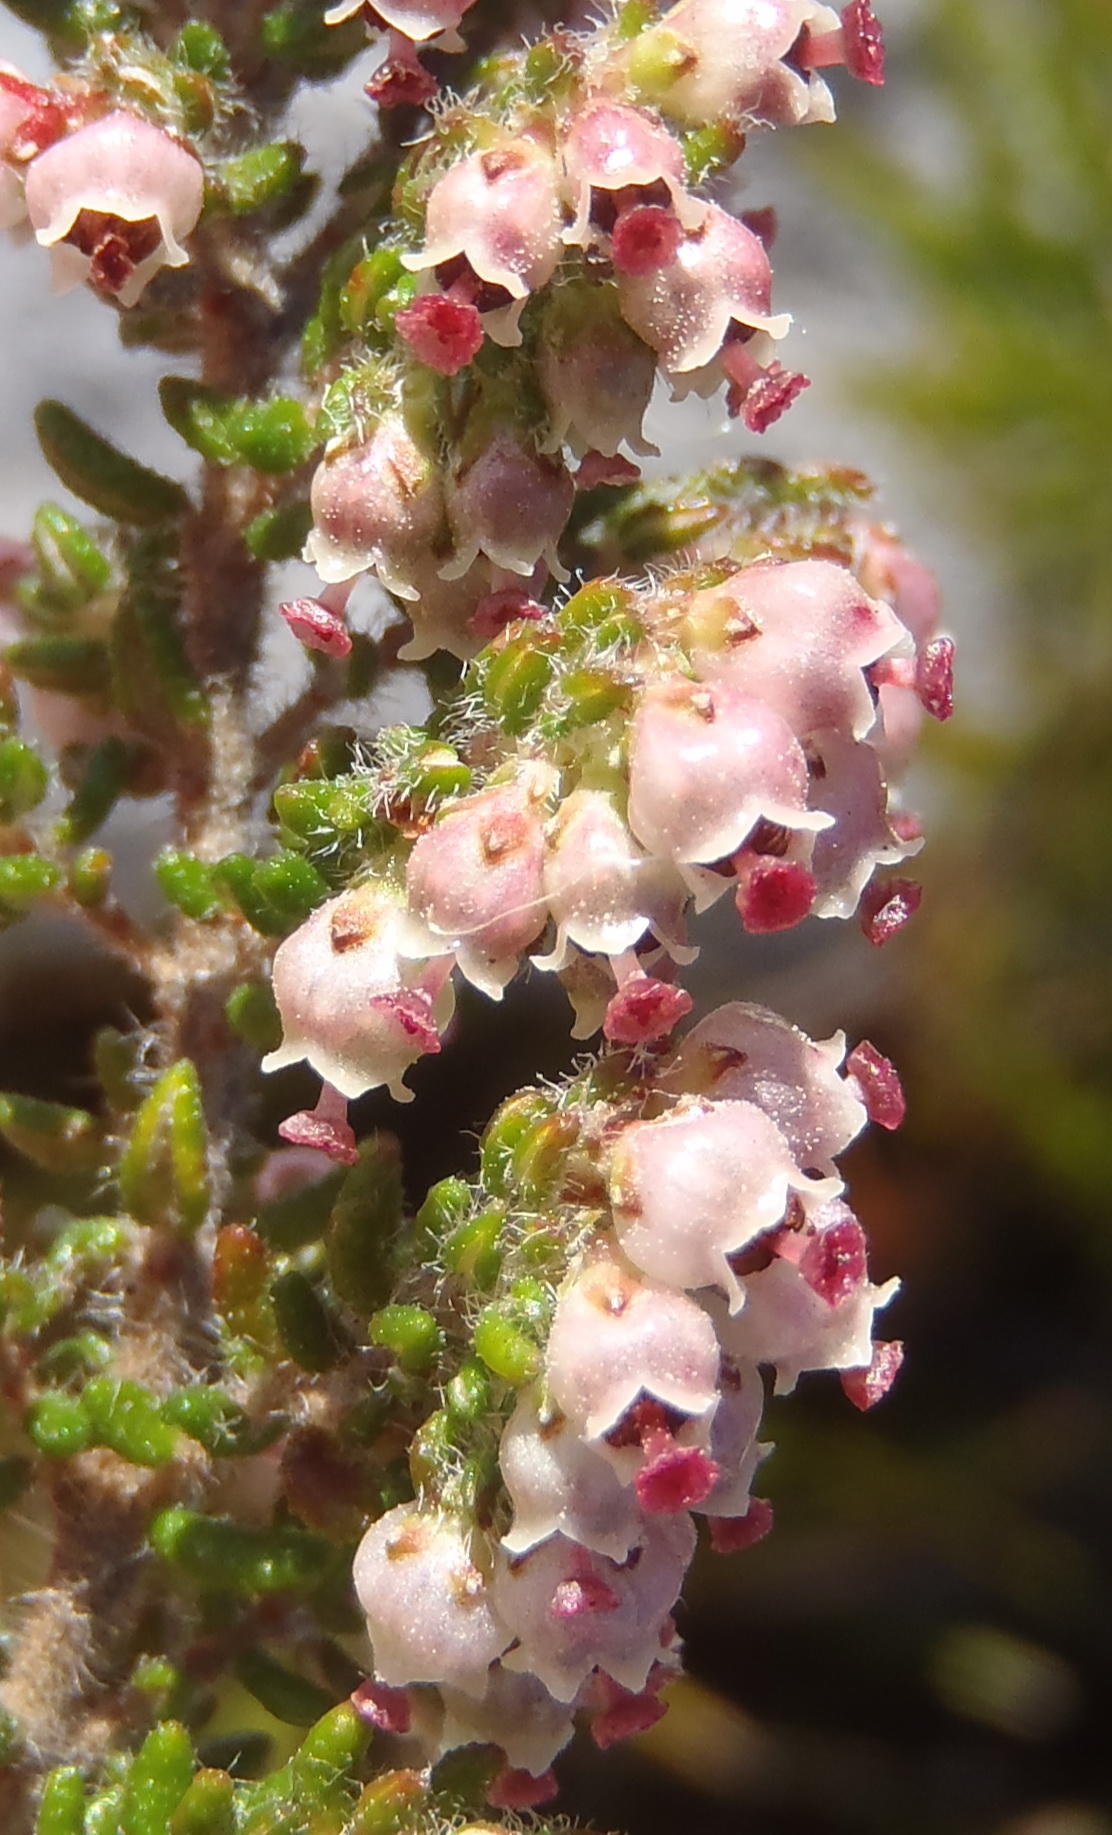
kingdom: Plantae
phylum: Tracheophyta
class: Magnoliopsida
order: Ericales
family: Ericaceae
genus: Erica
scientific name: Erica cordata
